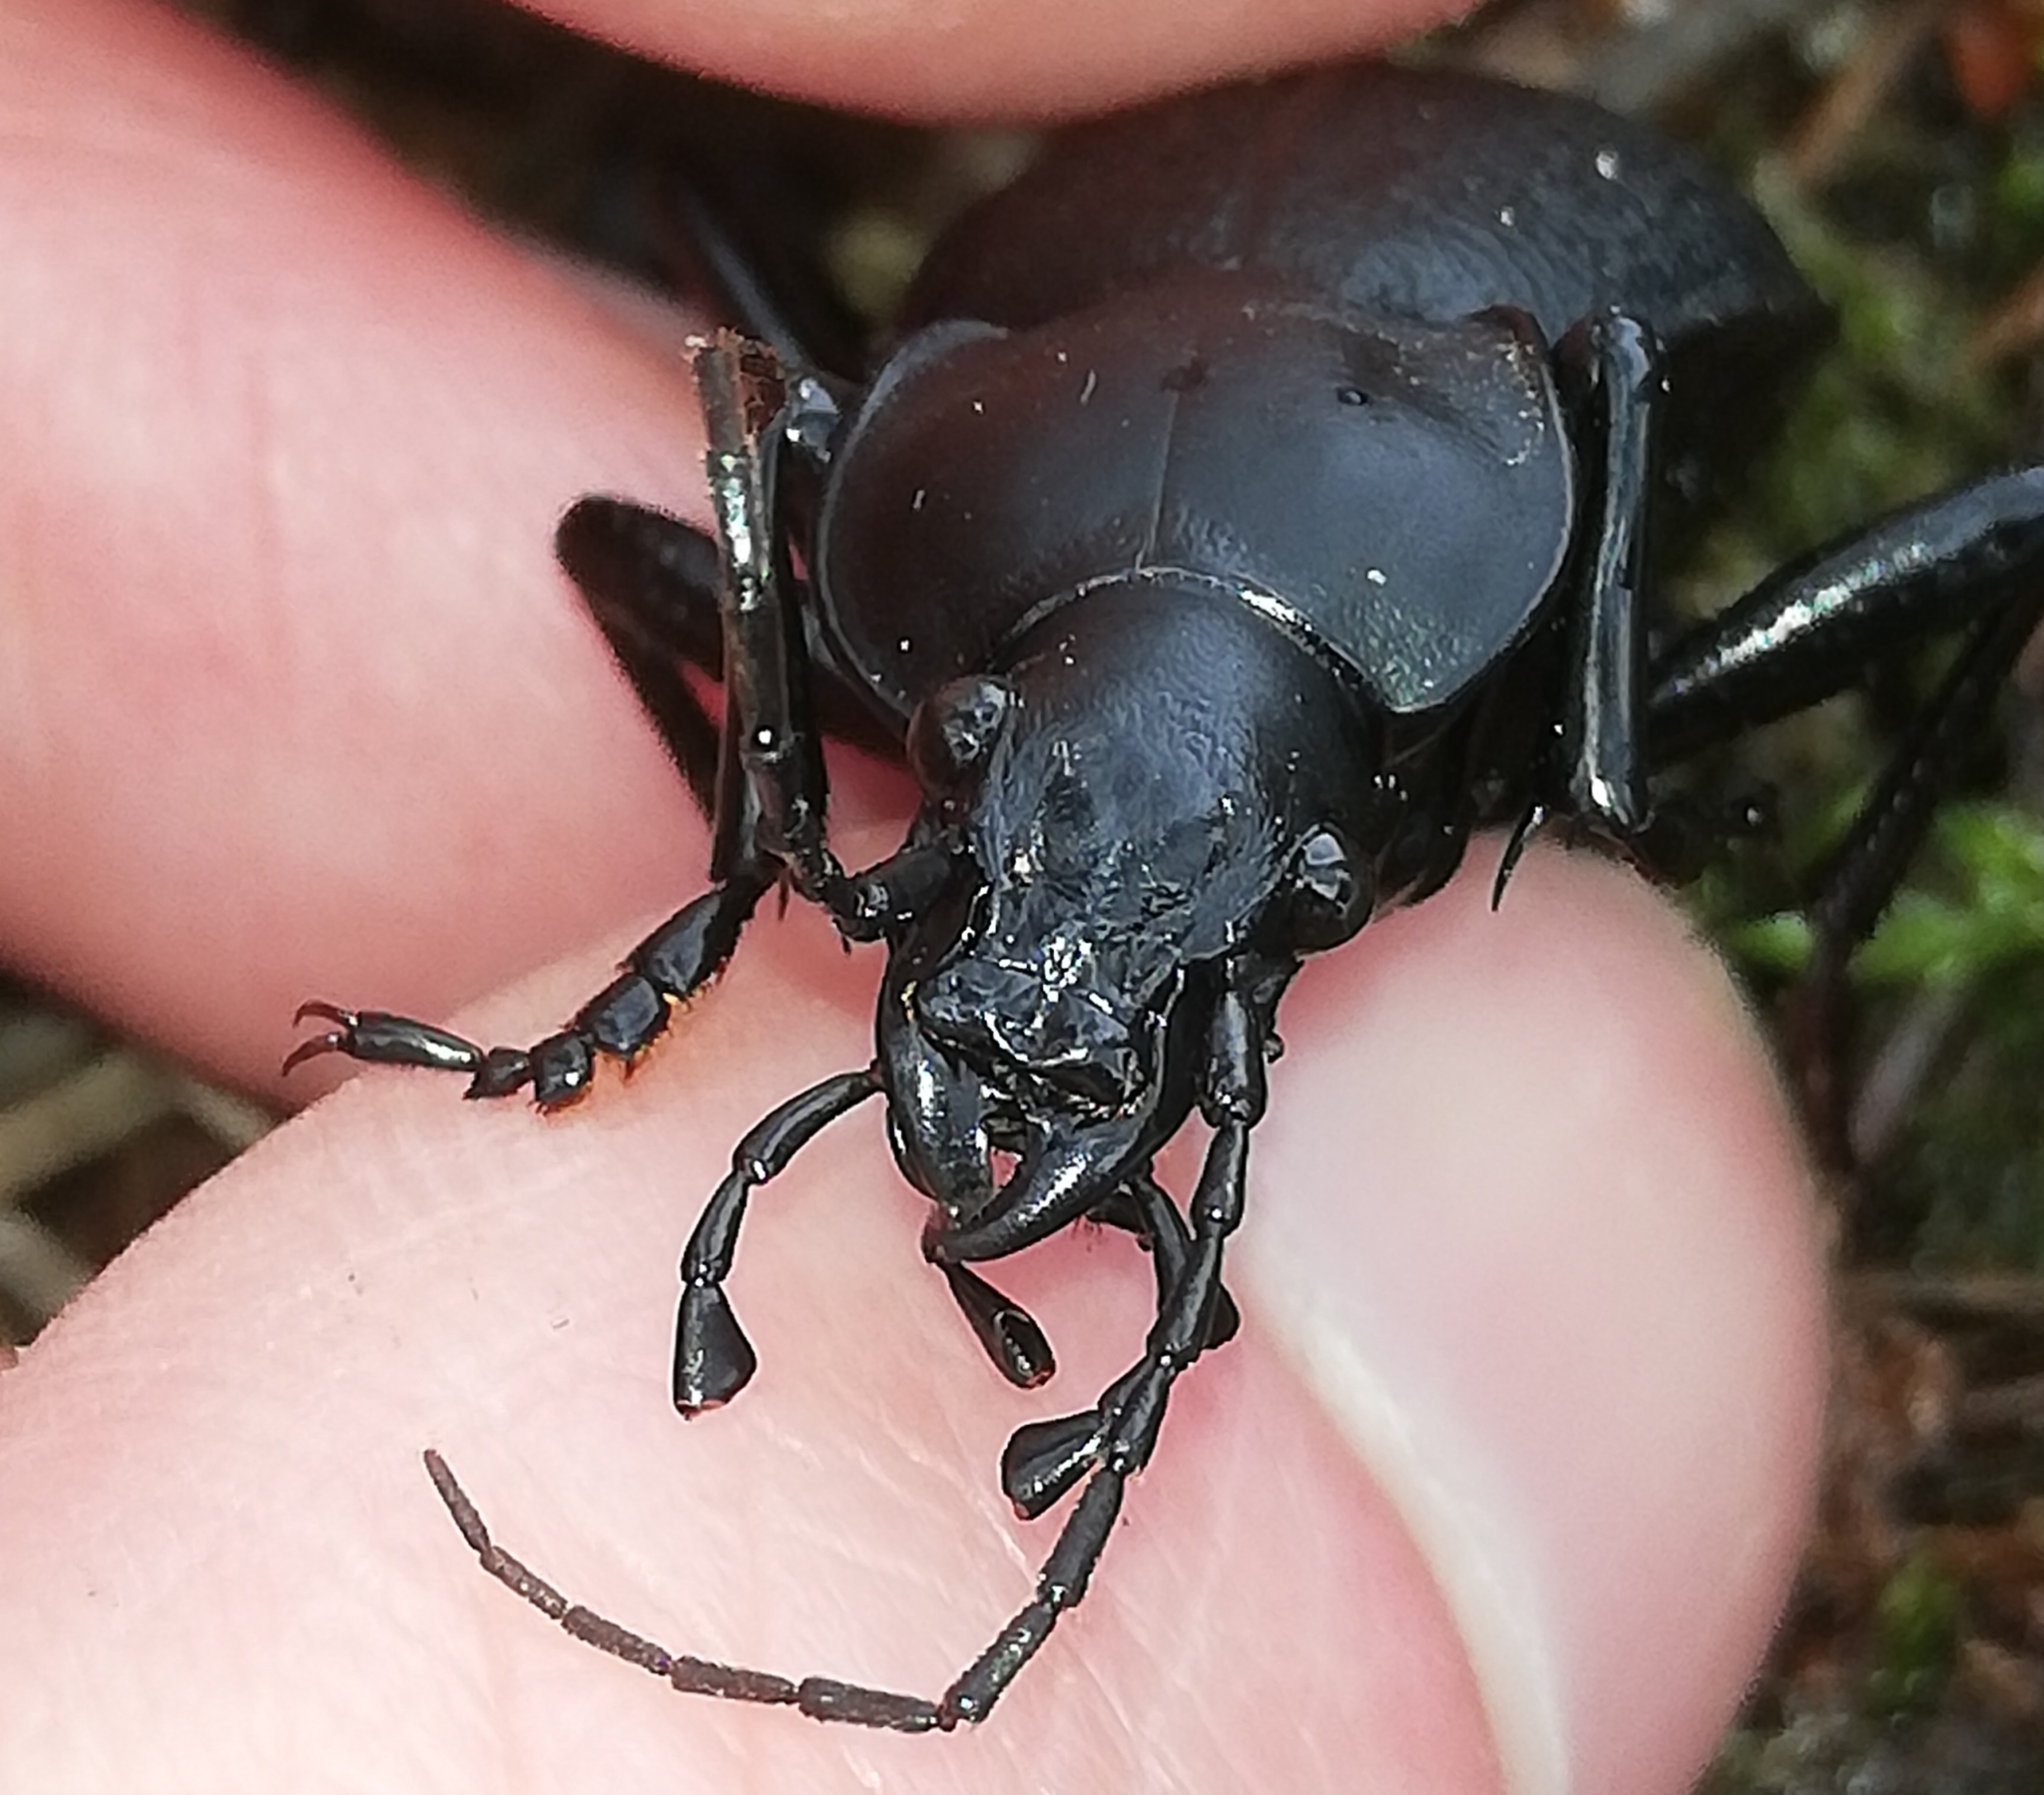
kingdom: Animalia
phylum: Arthropoda
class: Insecta
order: Coleoptera
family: Carabidae
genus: Carabus
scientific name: Carabus coriaceus
